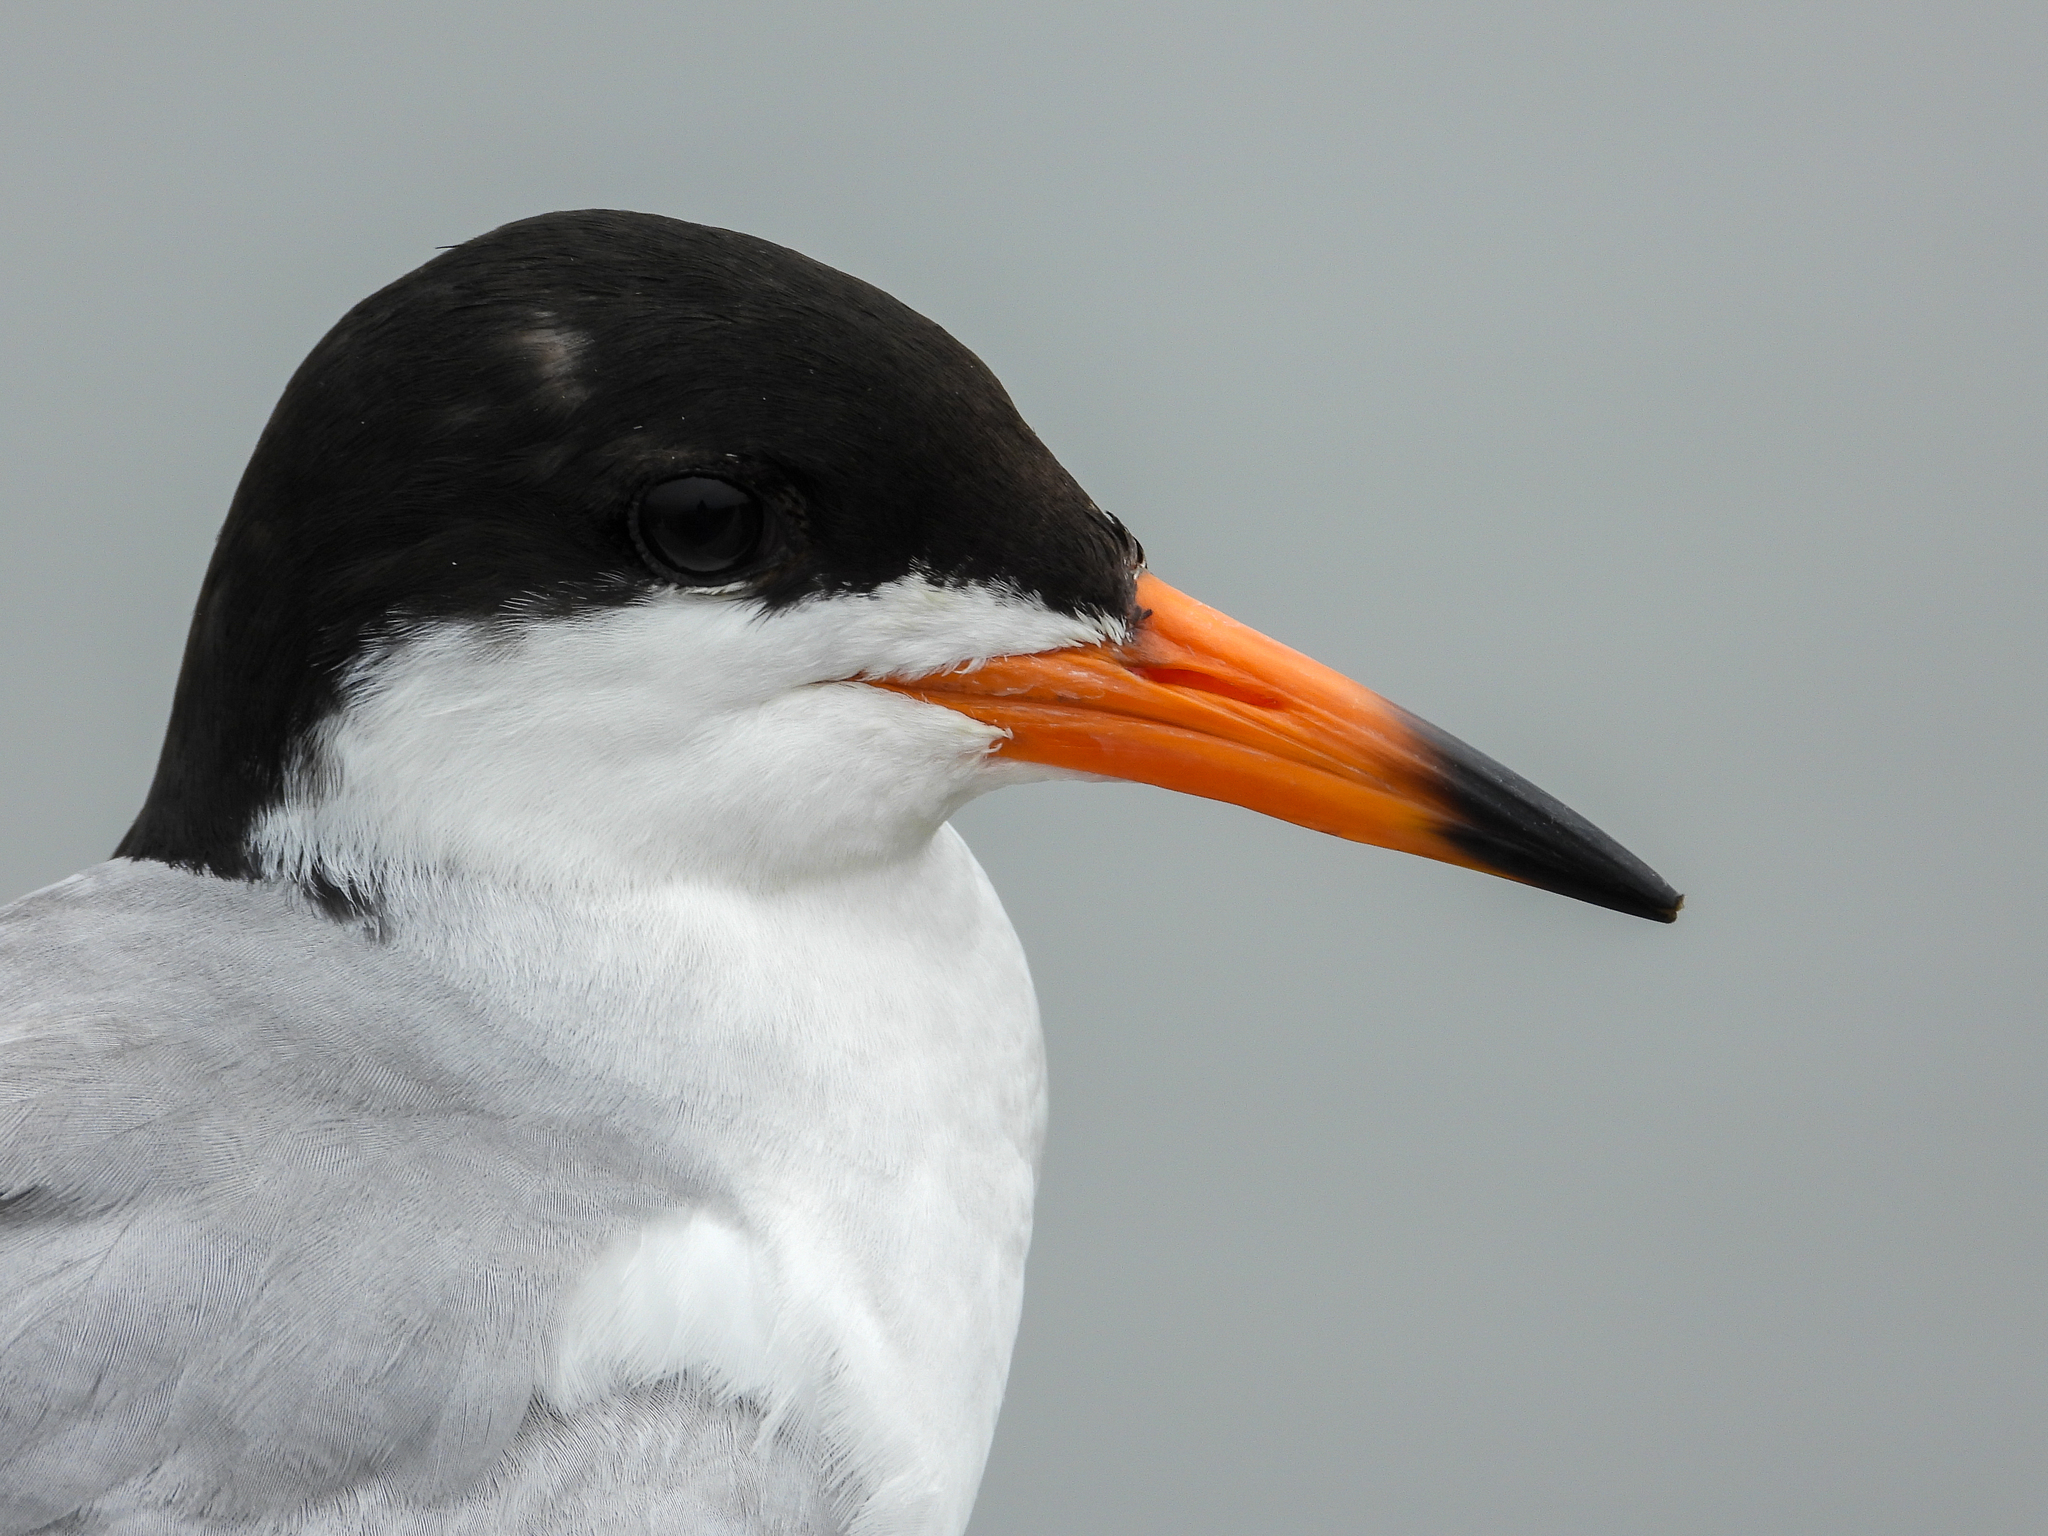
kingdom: Animalia
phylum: Chordata
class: Aves
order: Charadriiformes
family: Laridae
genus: Sterna
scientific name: Sterna forsteri
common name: Forster's tern
